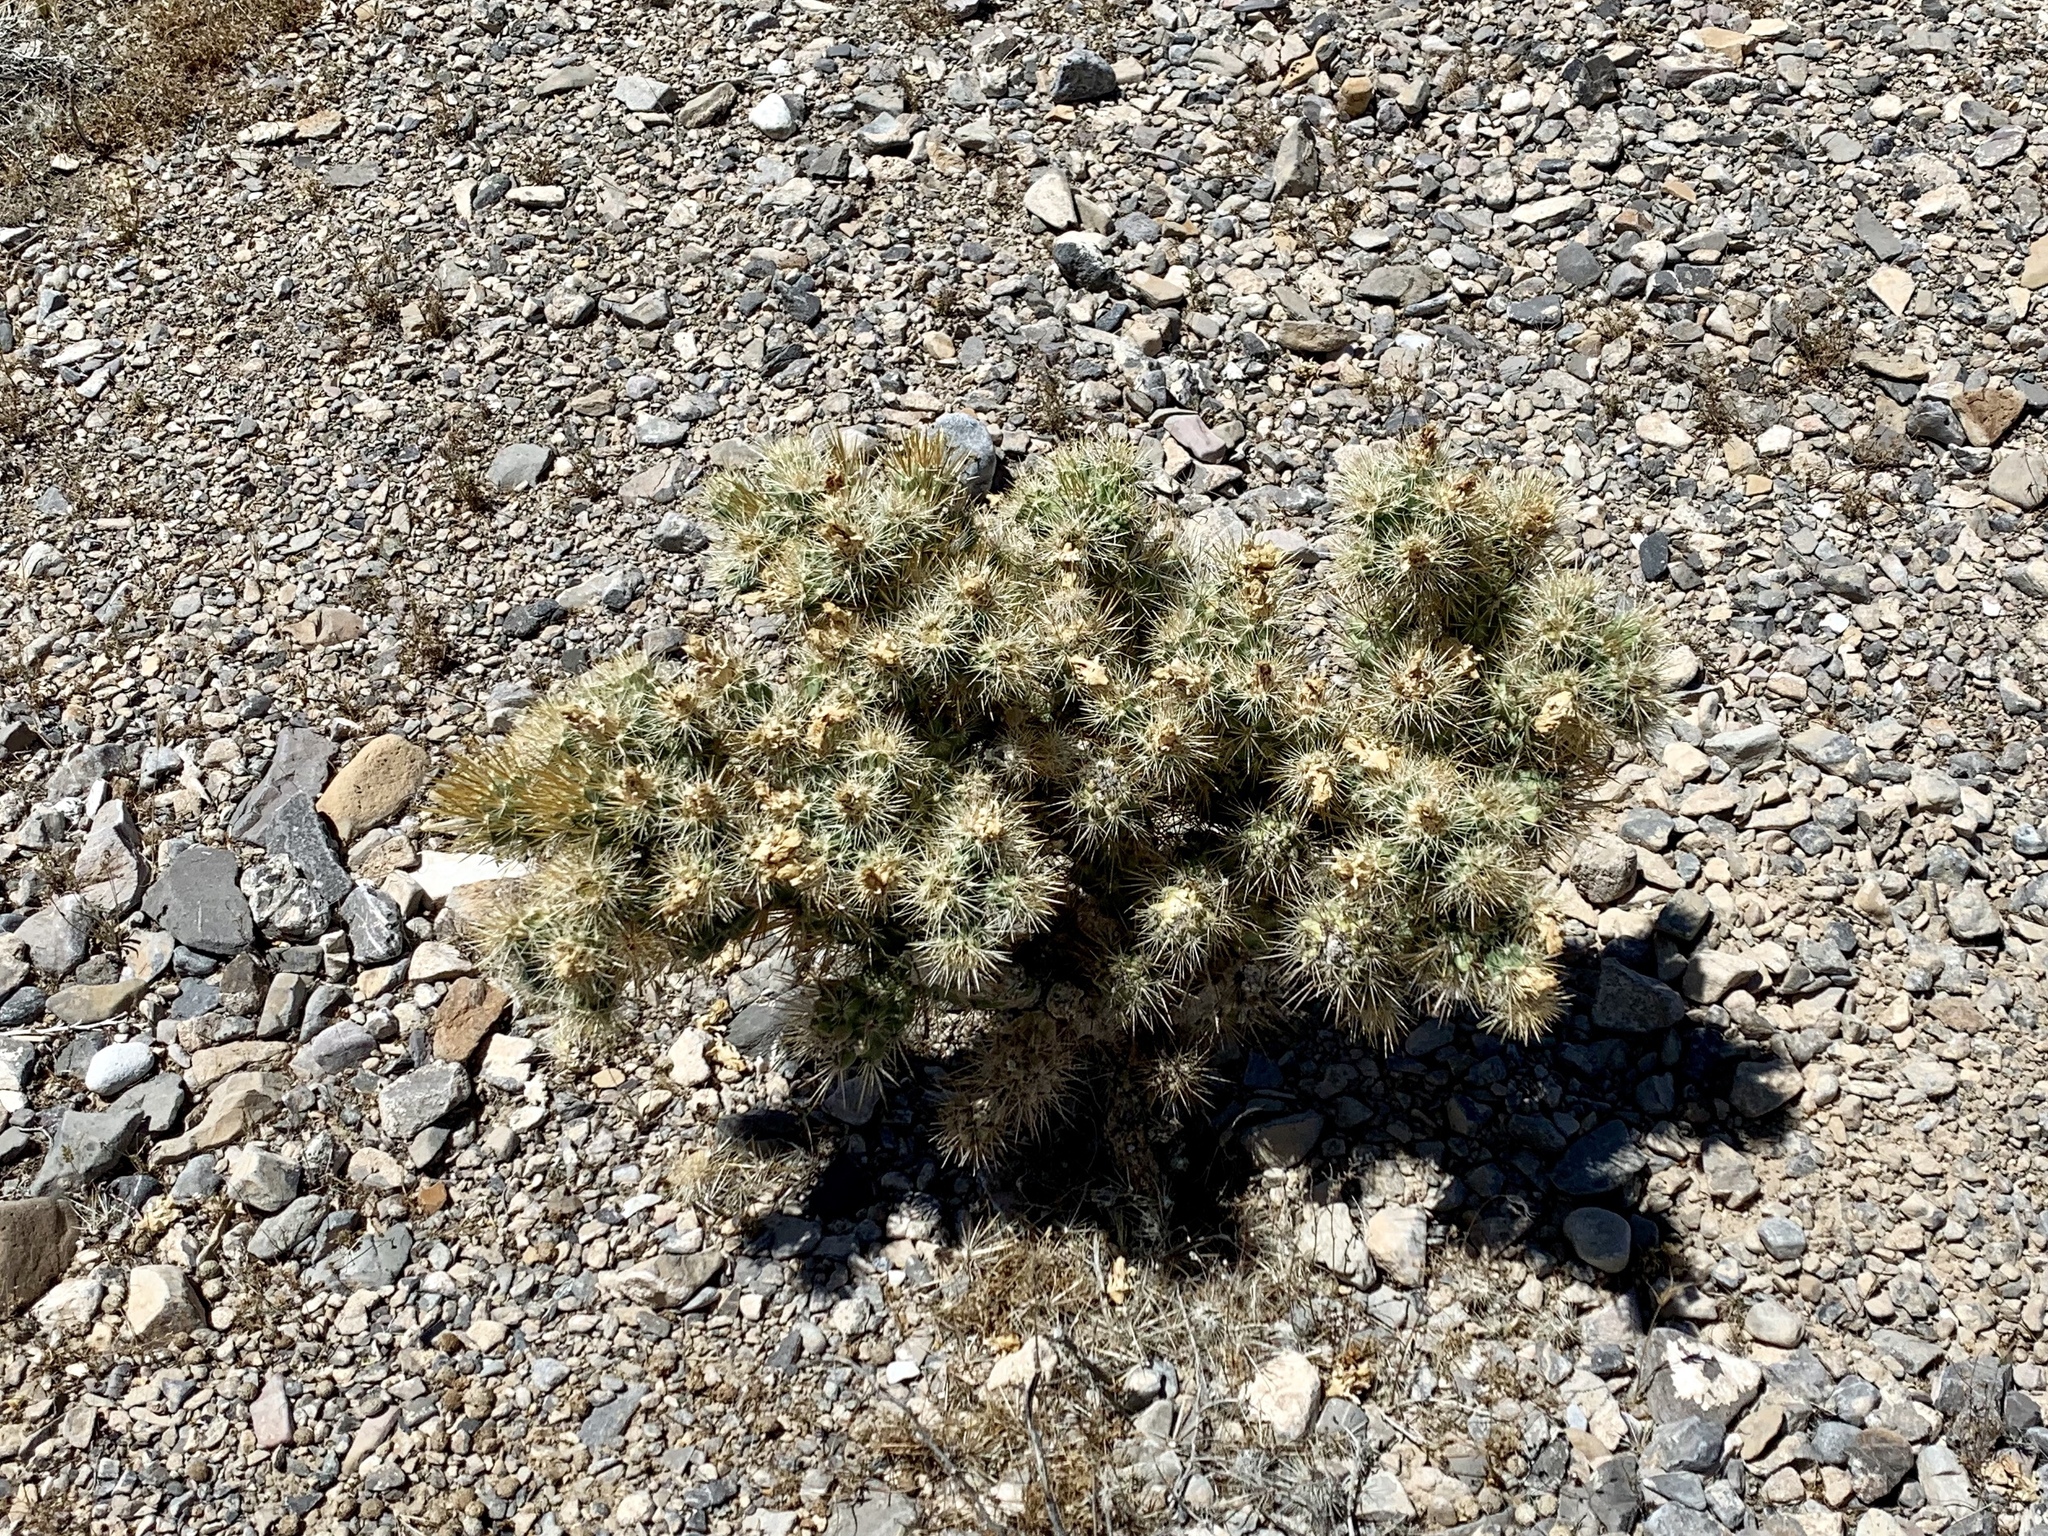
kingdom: Plantae
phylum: Tracheophyta
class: Magnoliopsida
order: Caryophyllales
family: Cactaceae
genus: Cylindropuntia
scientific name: Cylindropuntia echinocarpa
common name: Ground cholla
